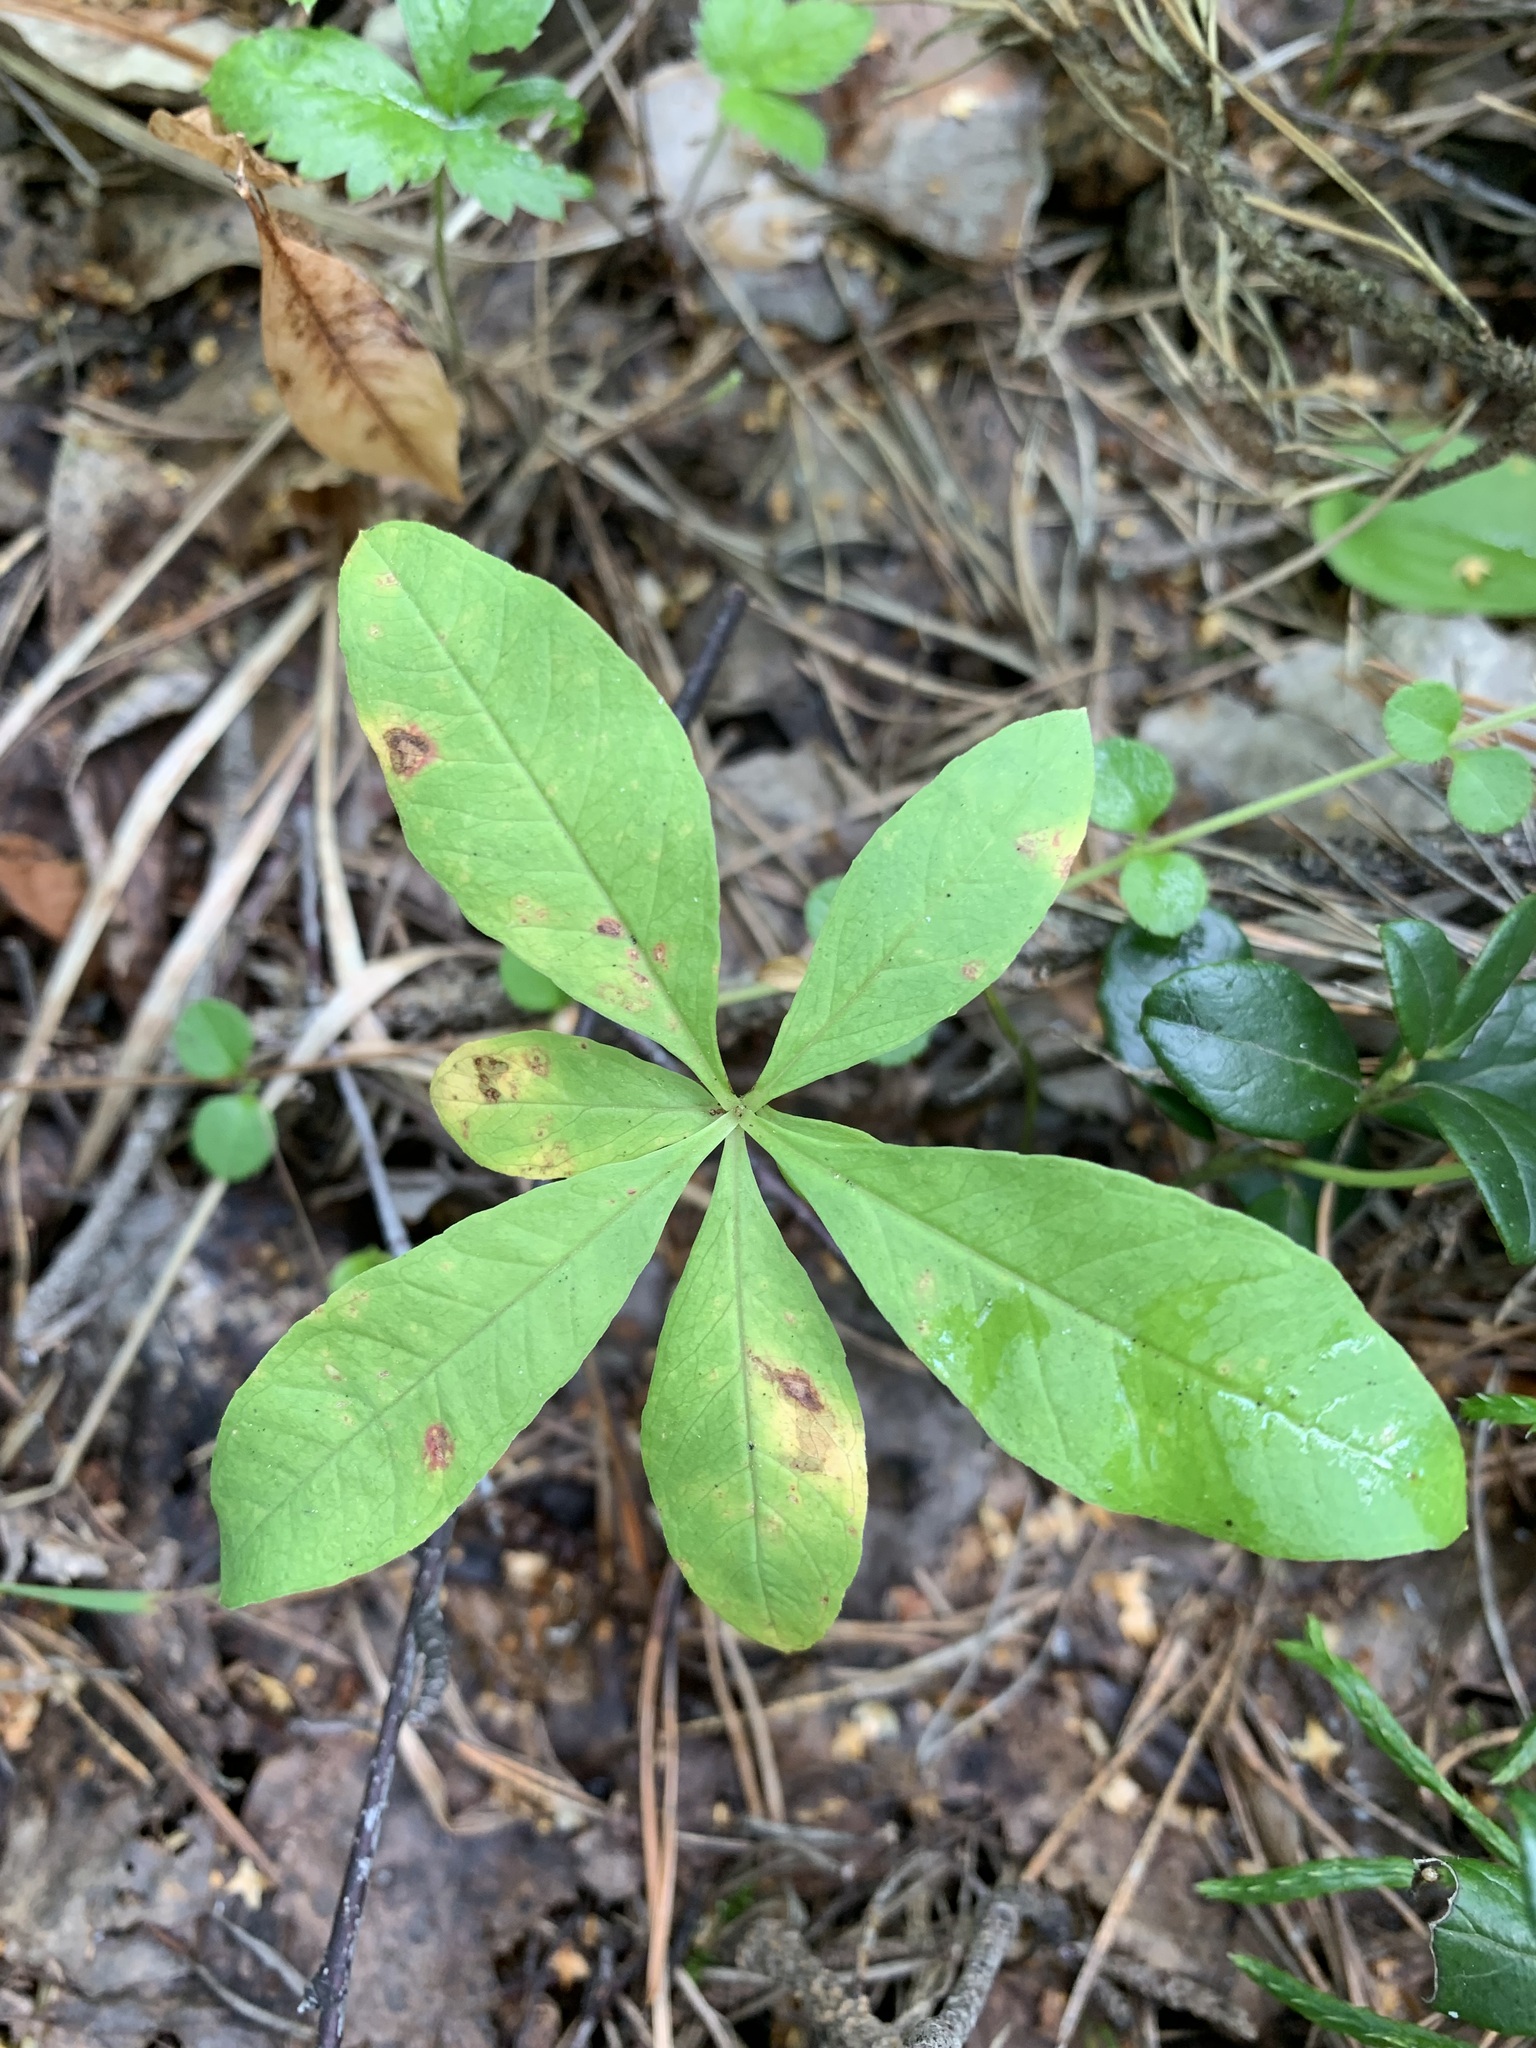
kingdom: Plantae
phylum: Tracheophyta
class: Magnoliopsida
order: Ericales
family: Primulaceae
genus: Lysimachia
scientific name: Lysimachia europaea
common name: Arctic starflower
